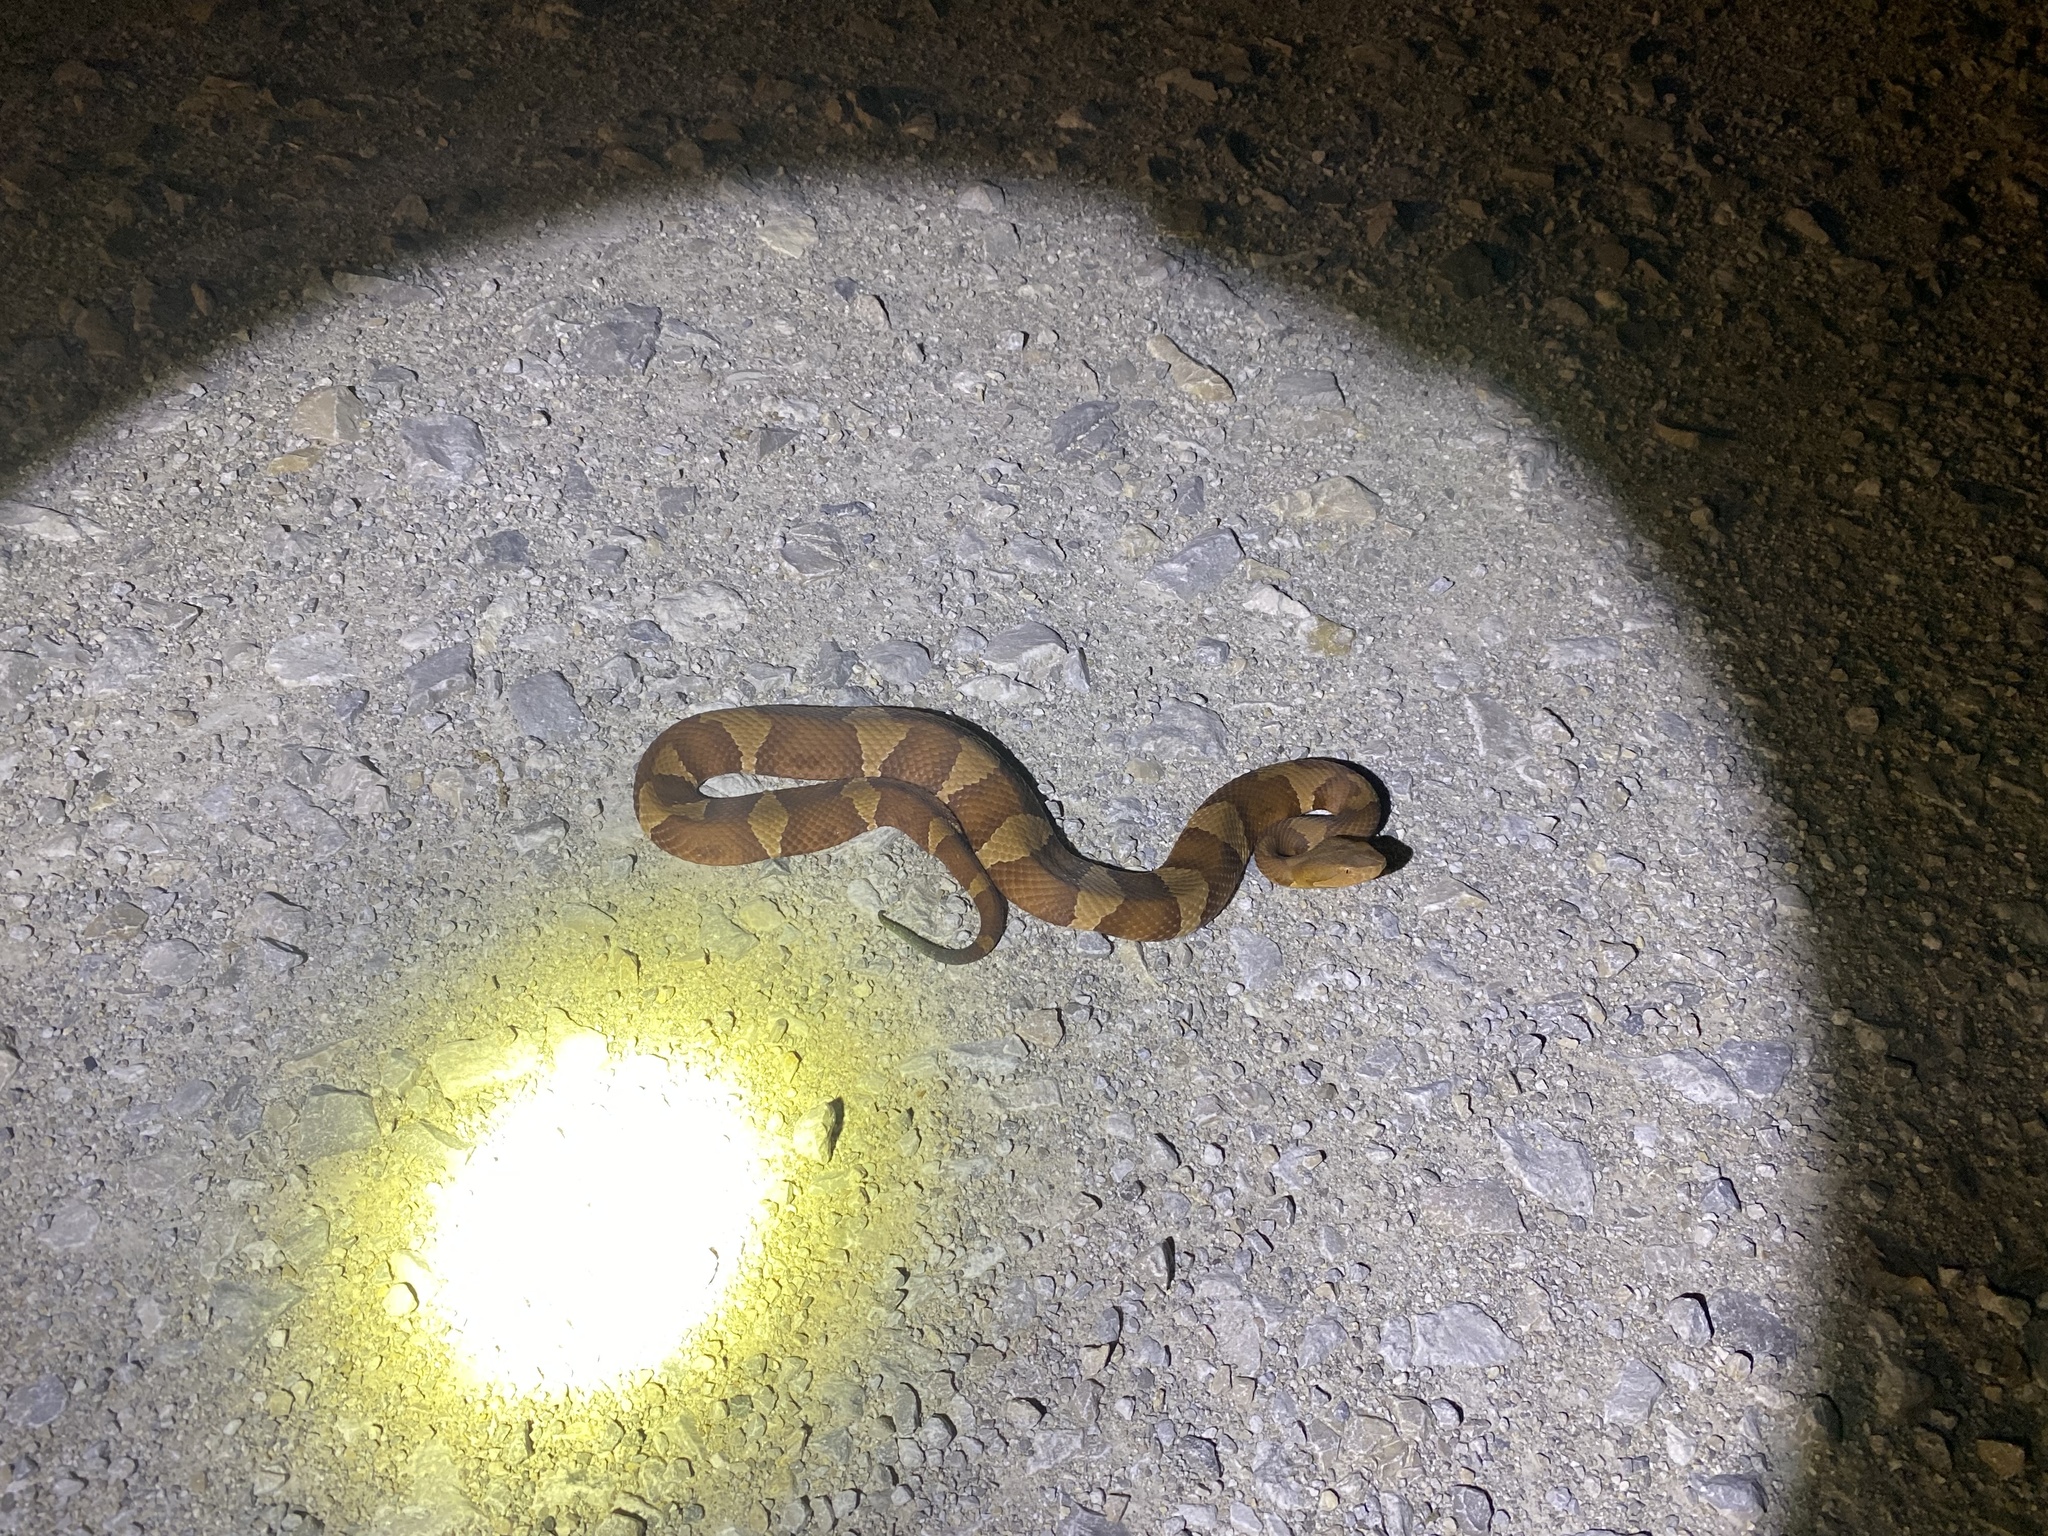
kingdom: Animalia
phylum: Chordata
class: Squamata
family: Viperidae
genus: Agkistrodon
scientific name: Agkistrodon laticinctus
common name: Broad-banded copperhead
